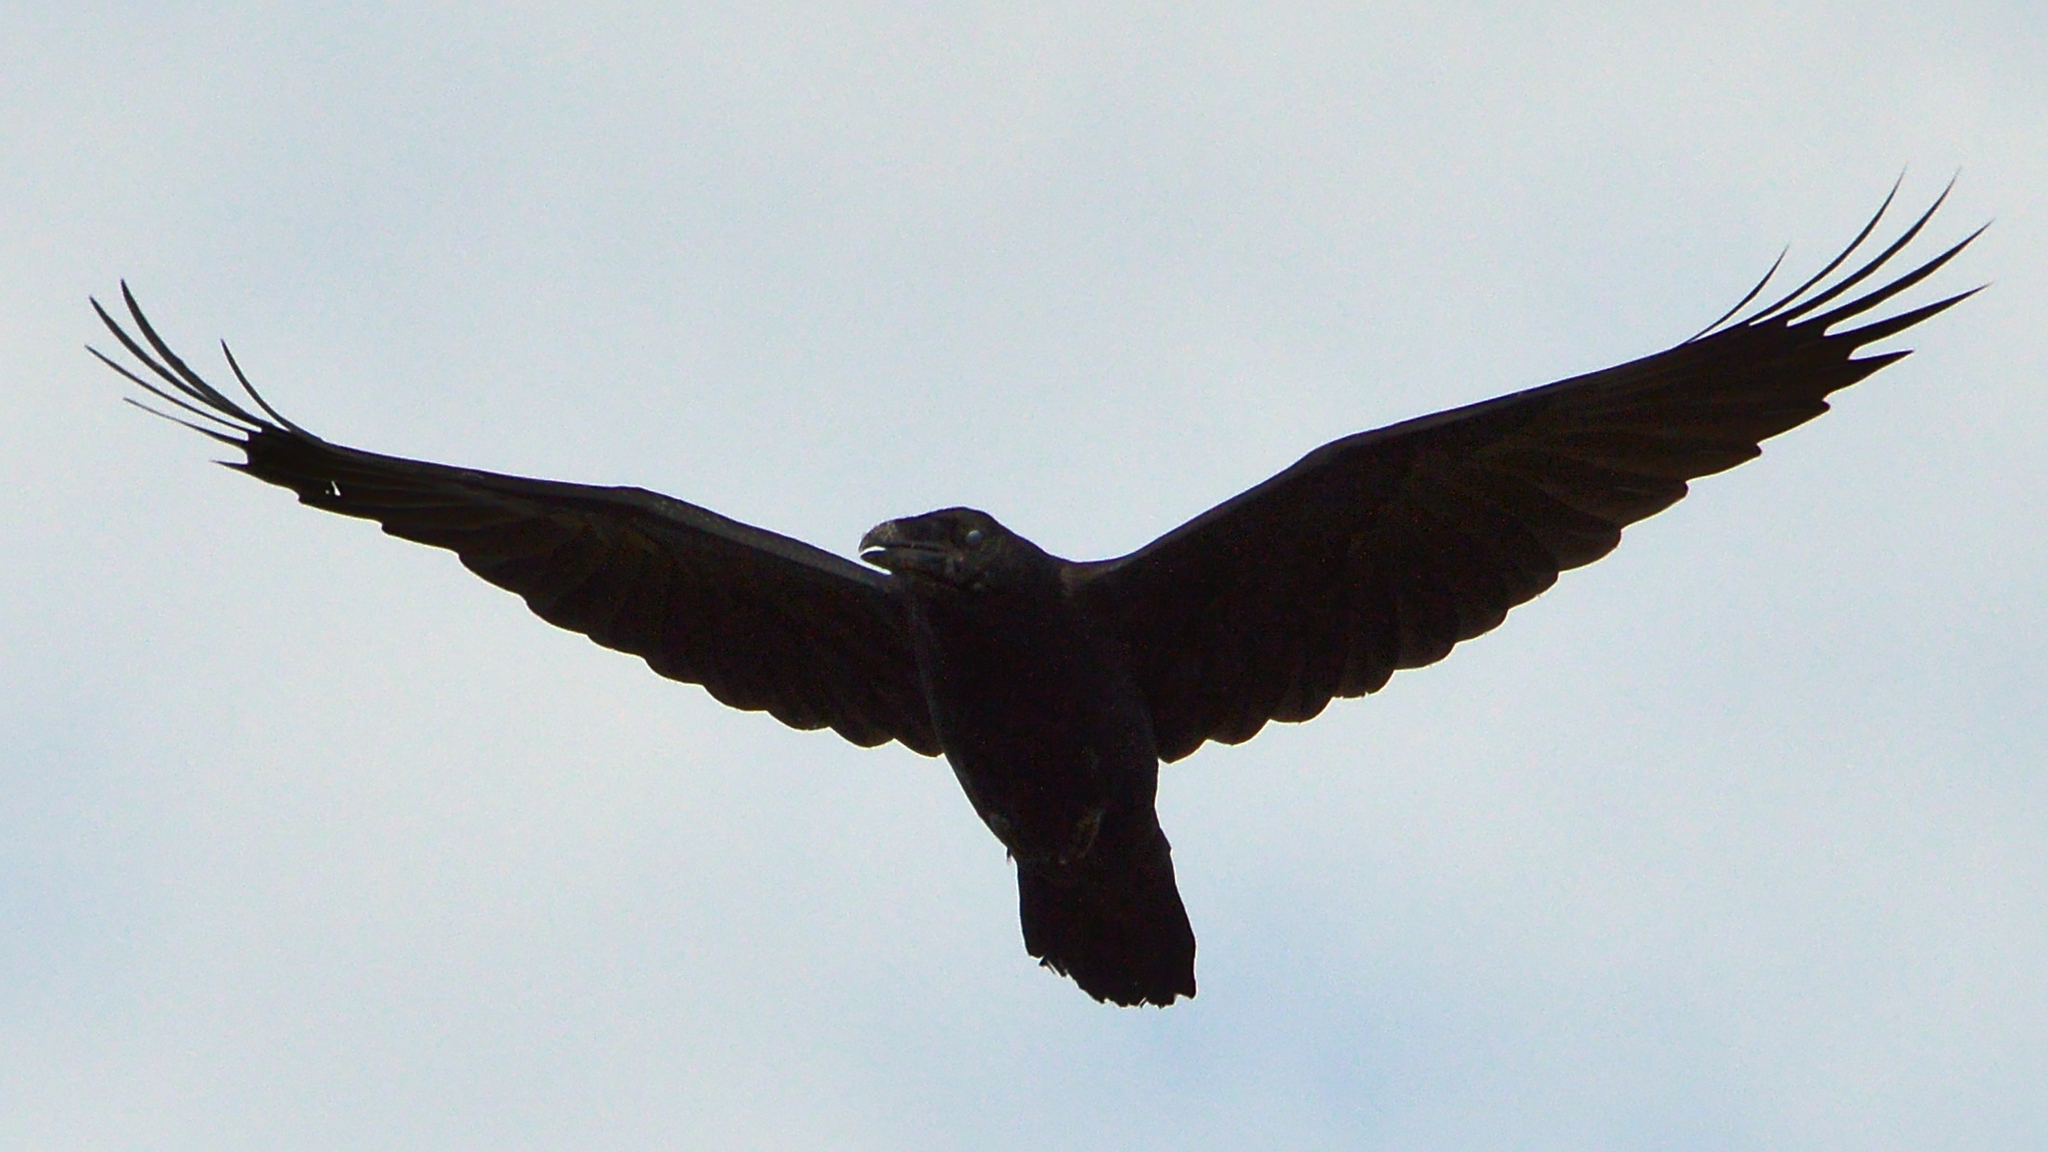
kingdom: Animalia
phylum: Chordata
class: Aves
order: Passeriformes
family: Corvidae
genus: Corvus
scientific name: Corvus corax
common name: Common raven
